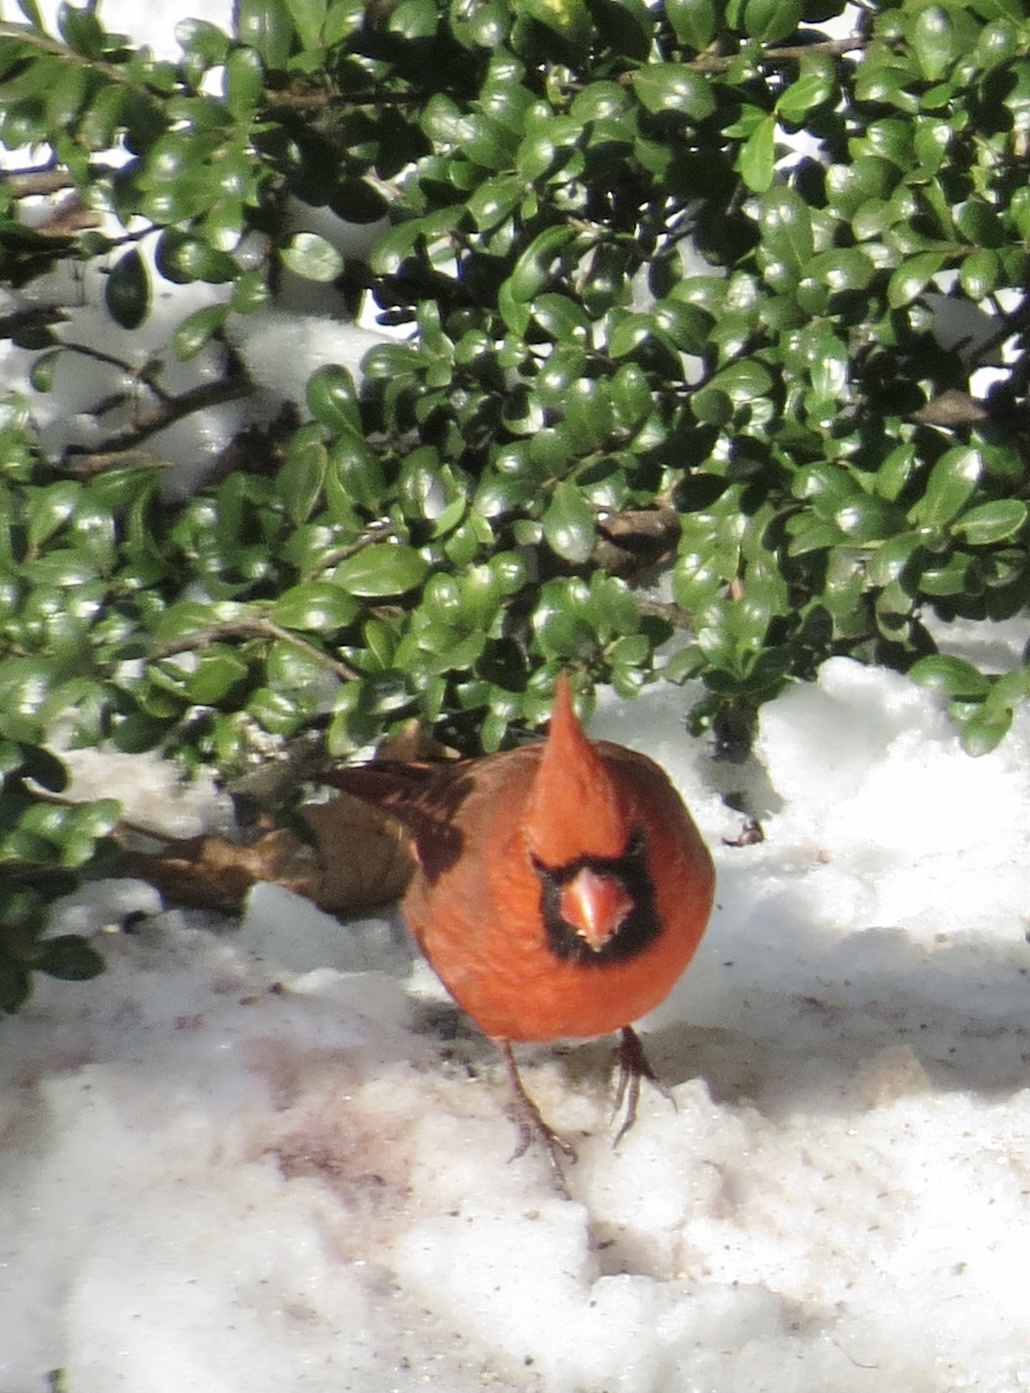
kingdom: Animalia
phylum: Chordata
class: Aves
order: Passeriformes
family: Cardinalidae
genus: Cardinalis
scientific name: Cardinalis cardinalis
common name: Northern cardinal
